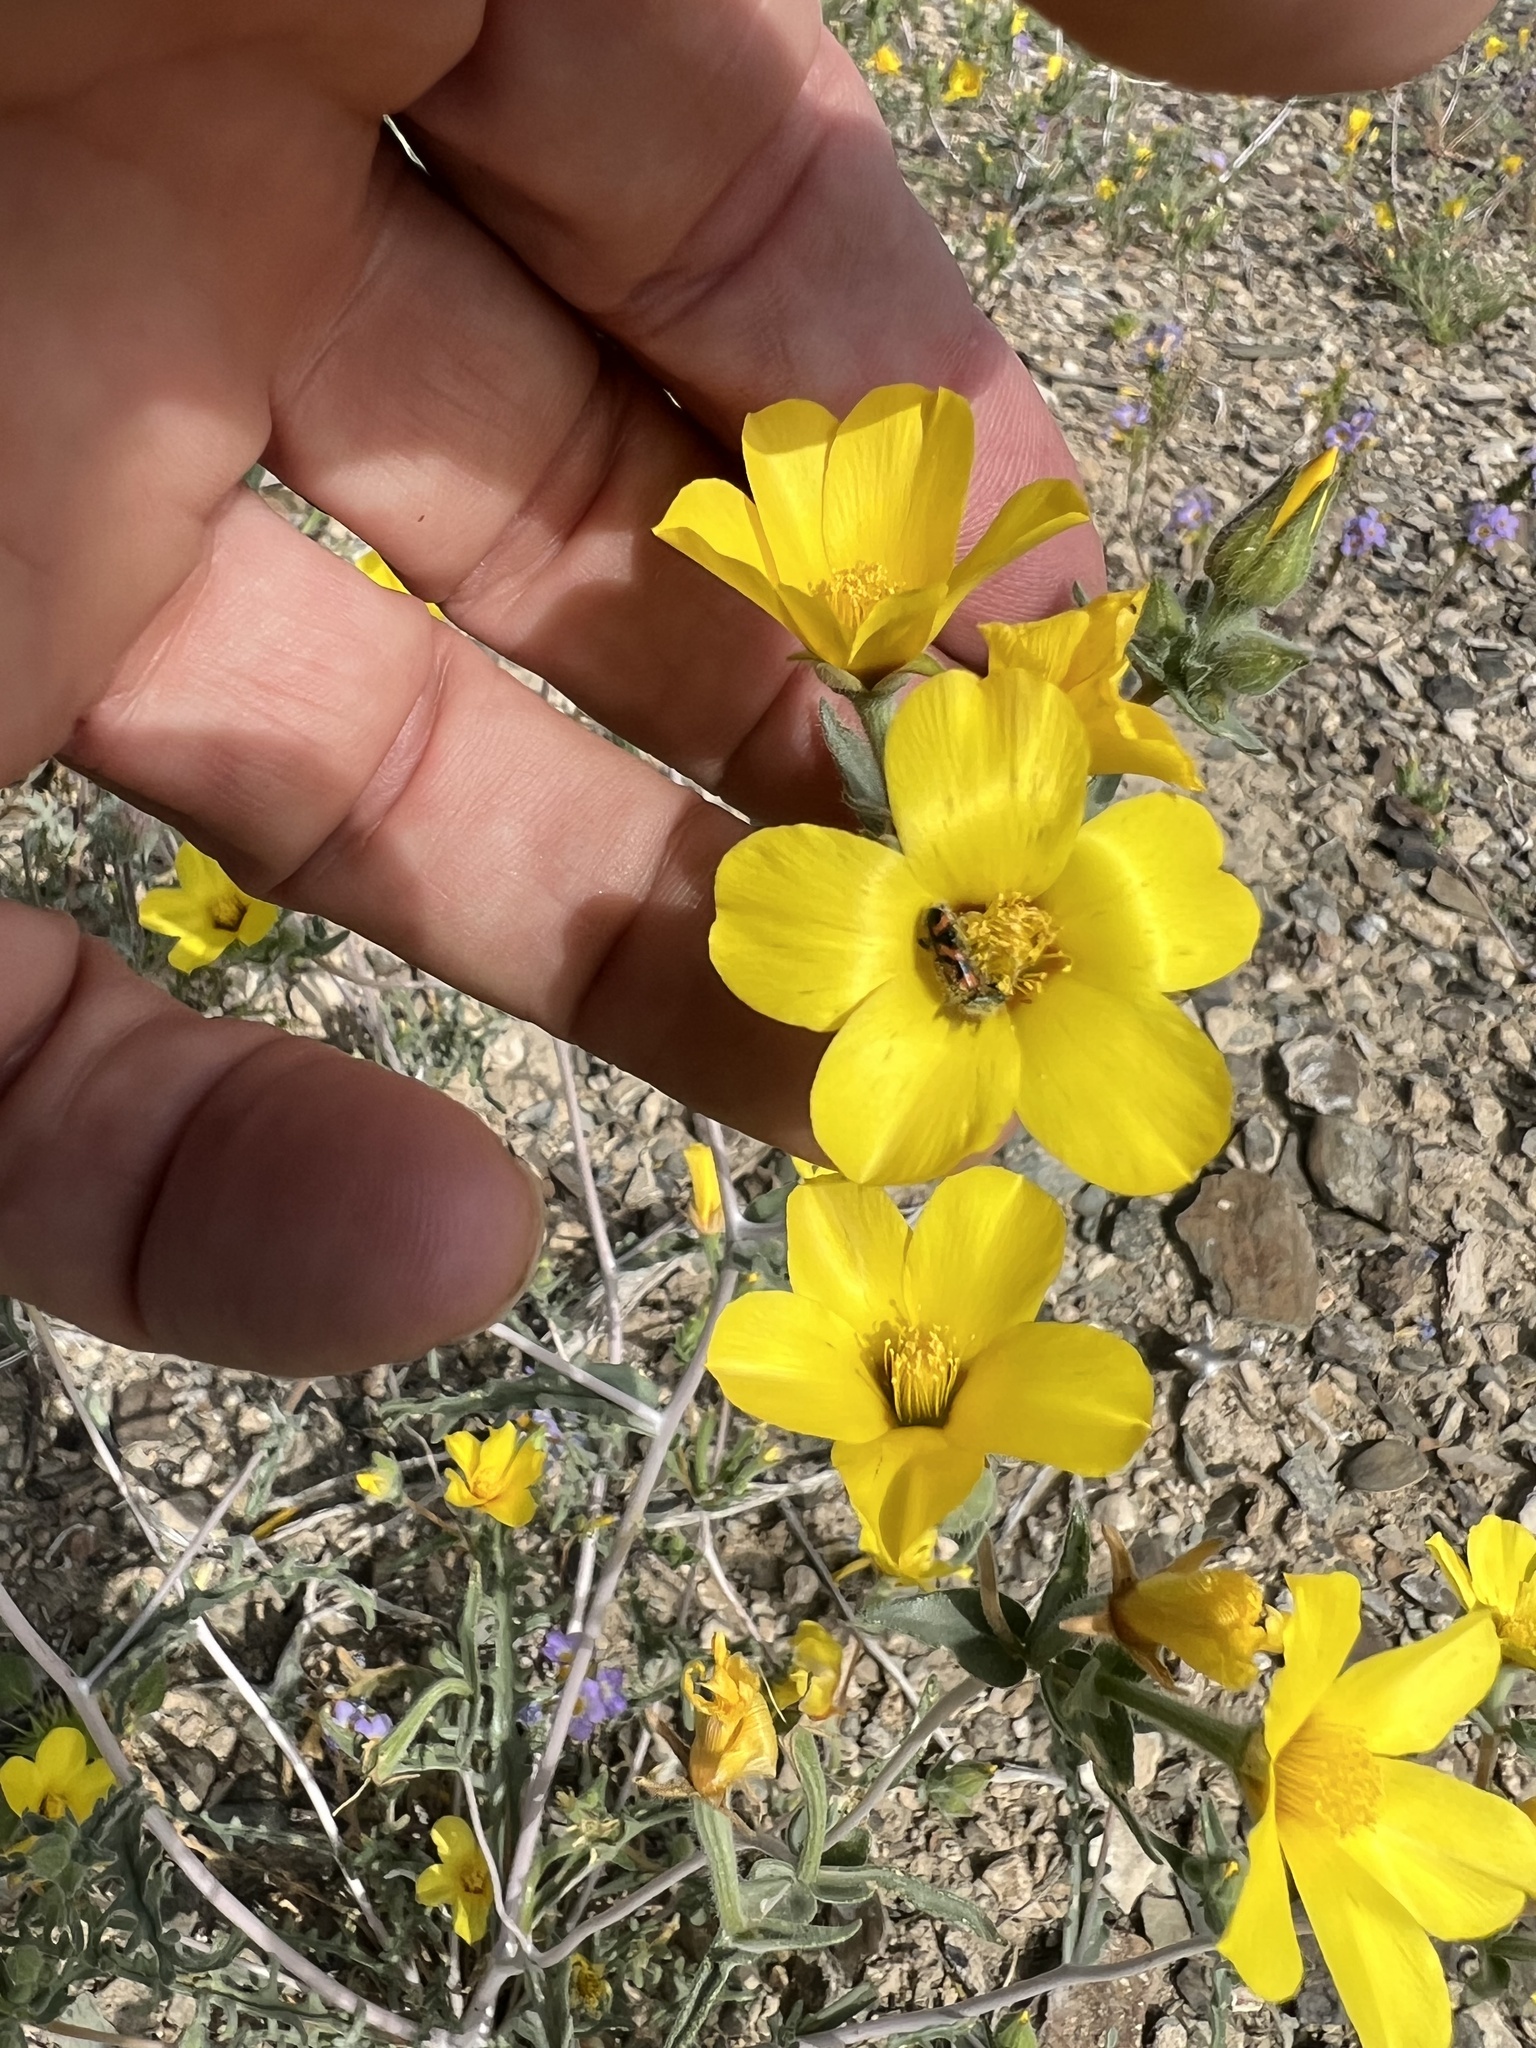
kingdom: Plantae
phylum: Tracheophyta
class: Magnoliopsida
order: Cornales
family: Loasaceae
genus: Mentzelia
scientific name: Mentzelia nitens
